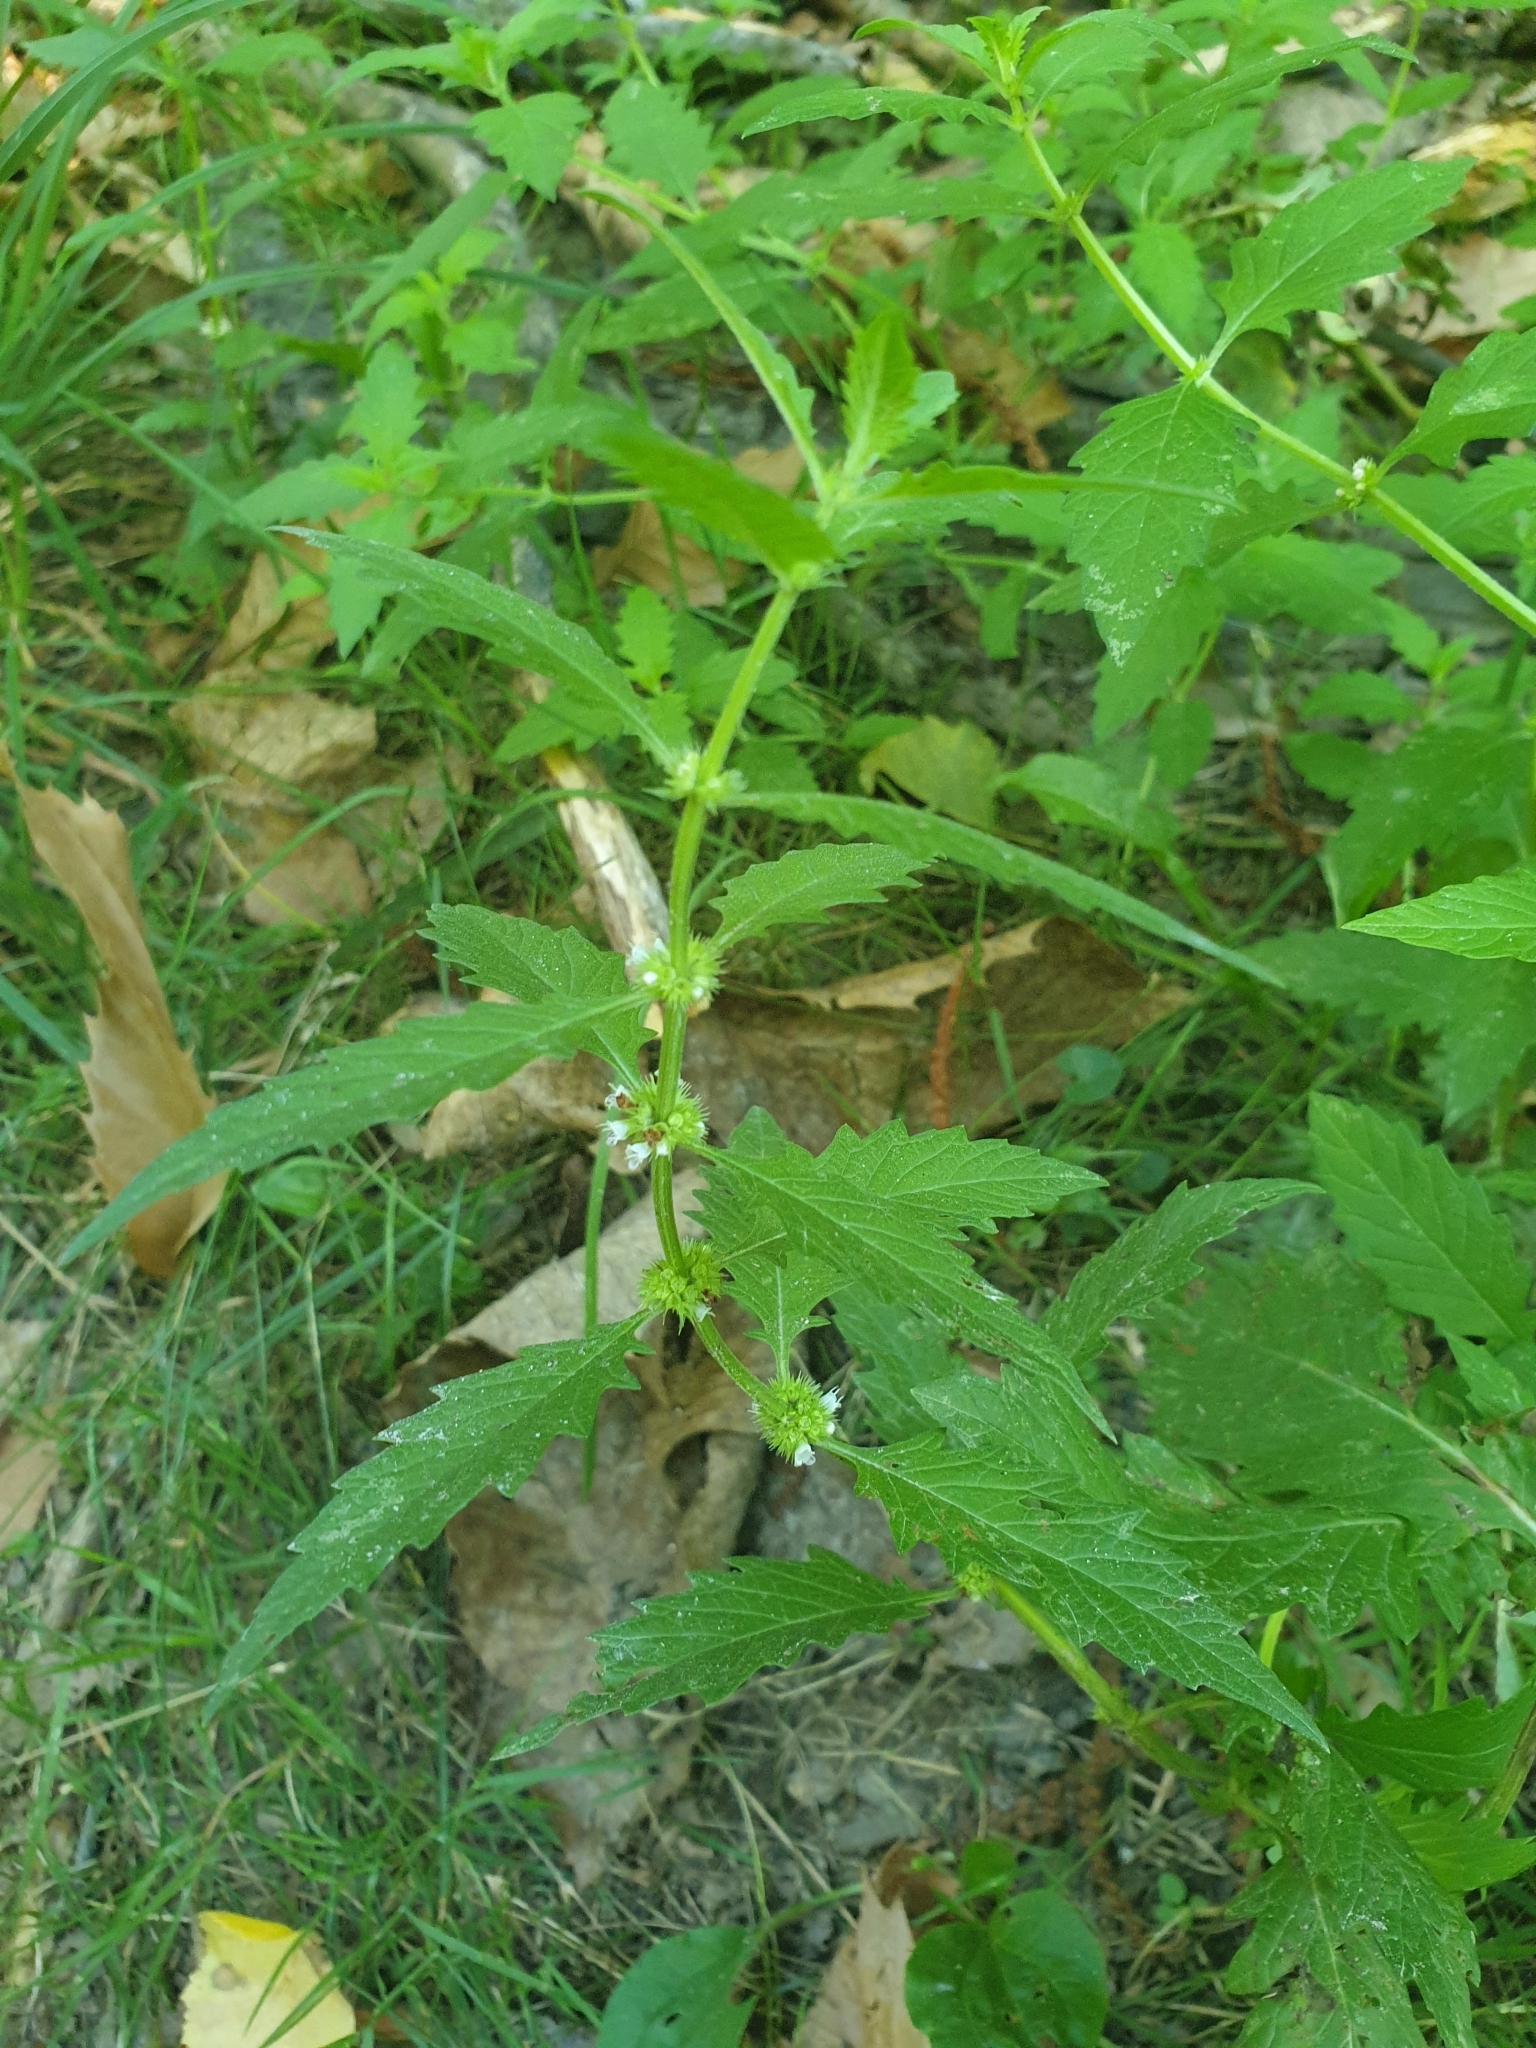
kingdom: Plantae
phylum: Tracheophyta
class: Magnoliopsida
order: Lamiales
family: Lamiaceae
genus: Lycopus
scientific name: Lycopus europaeus
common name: European bugleweed
